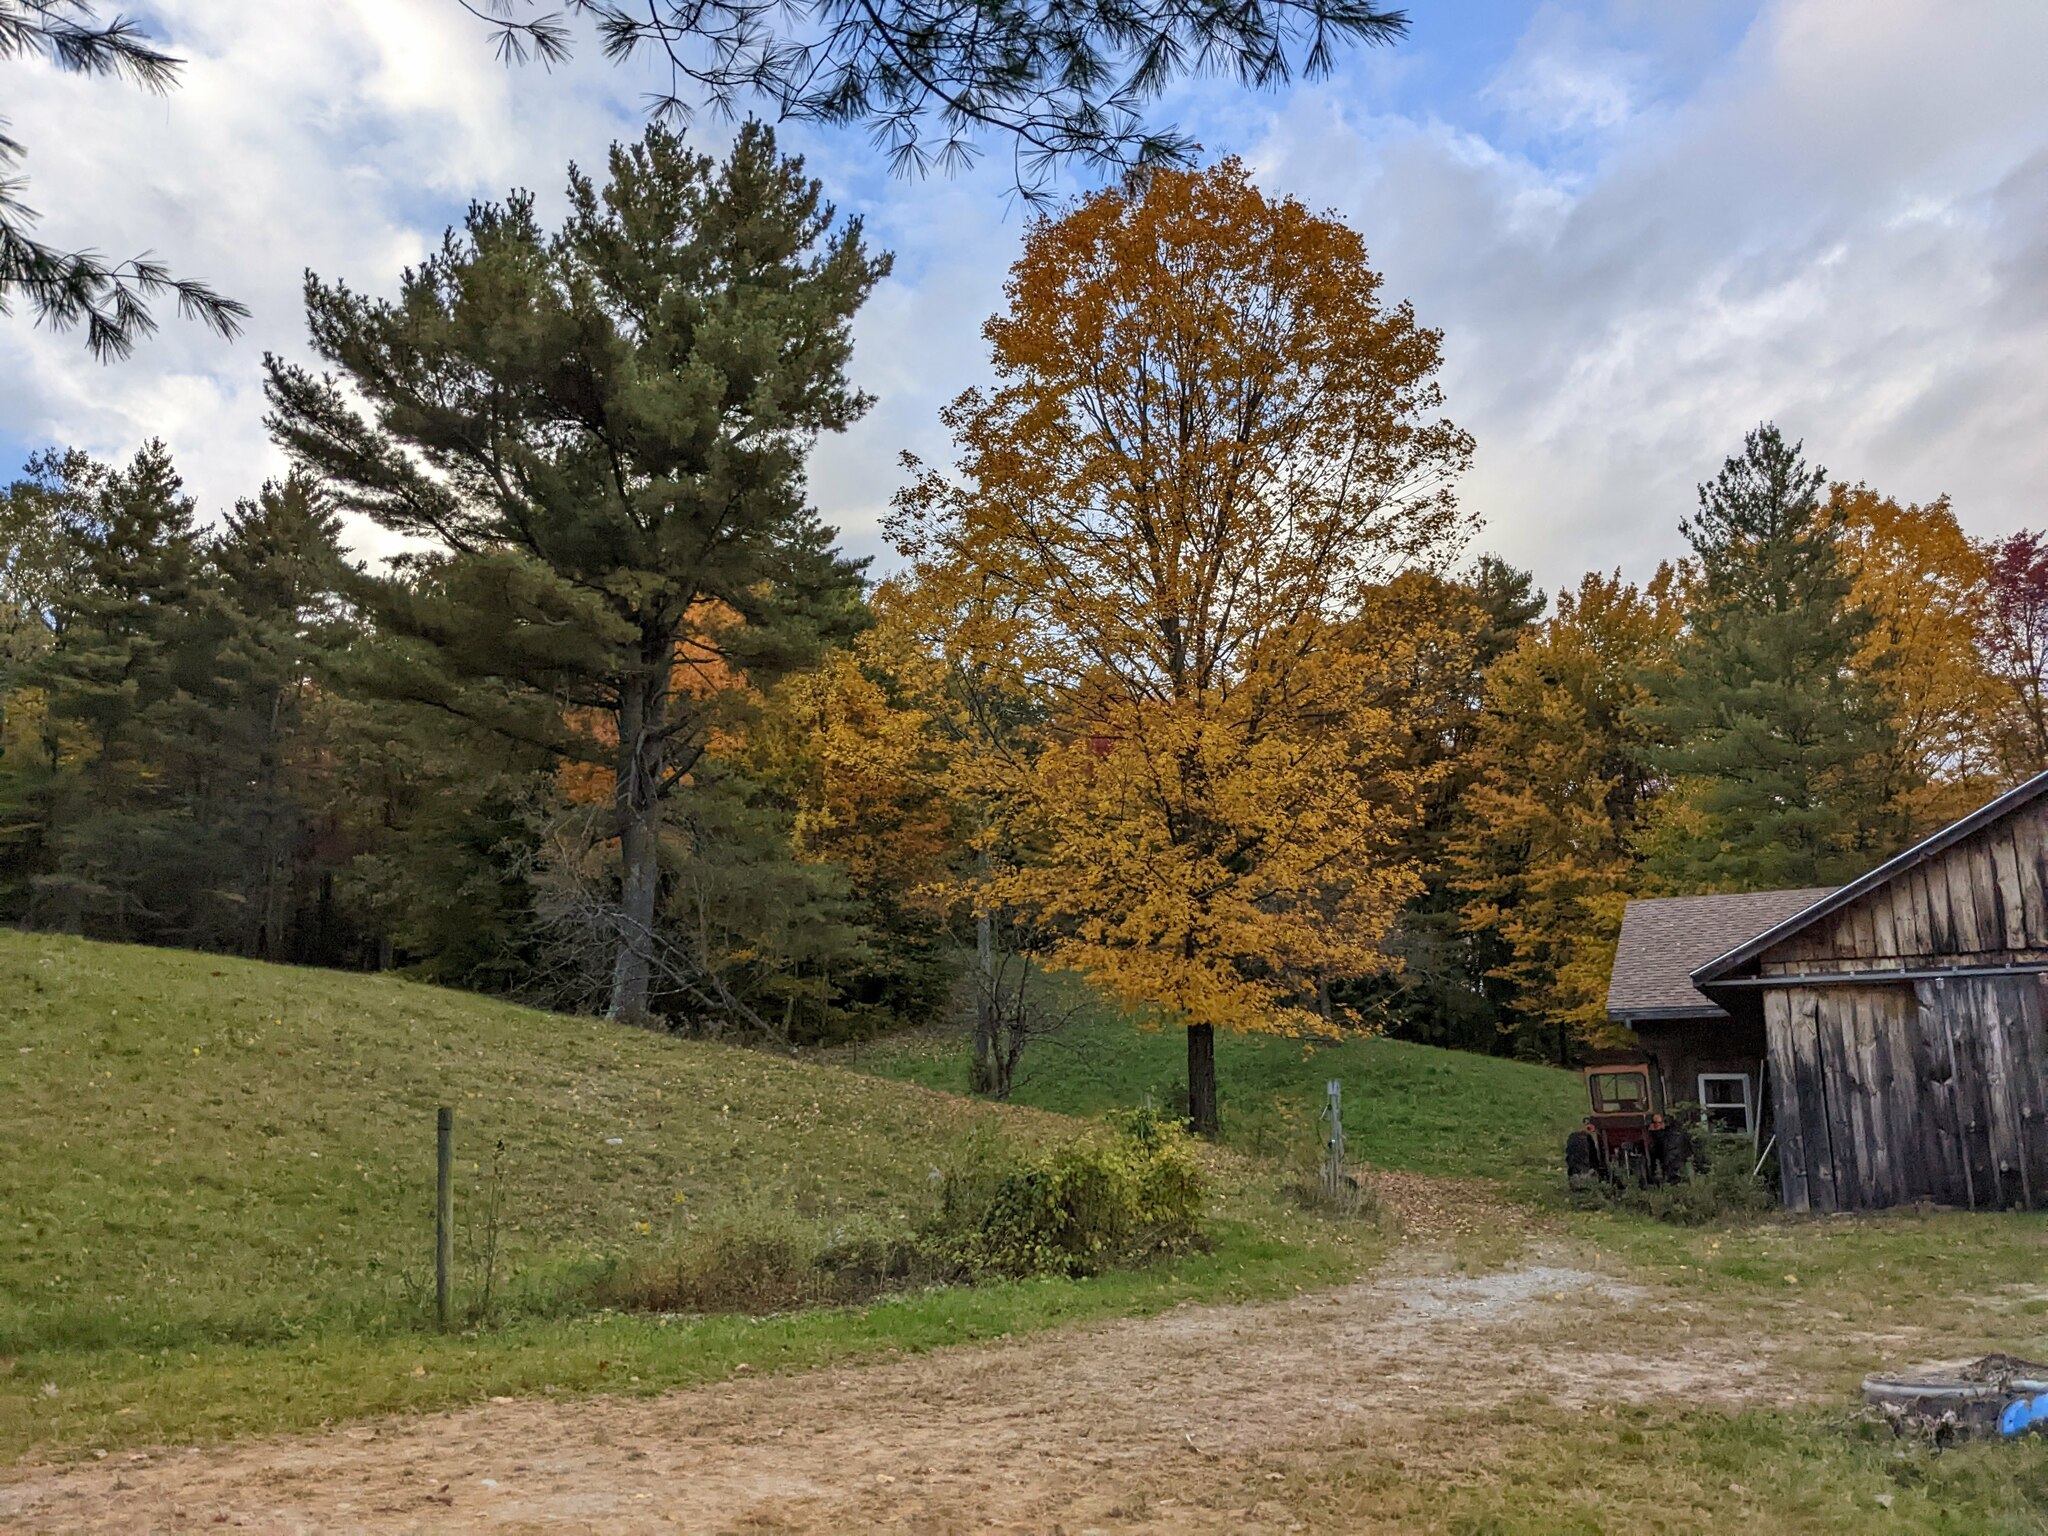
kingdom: Plantae
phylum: Tracheophyta
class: Pinopsida
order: Pinales
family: Pinaceae
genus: Pinus
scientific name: Pinus strobus
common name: Weymouth pine
